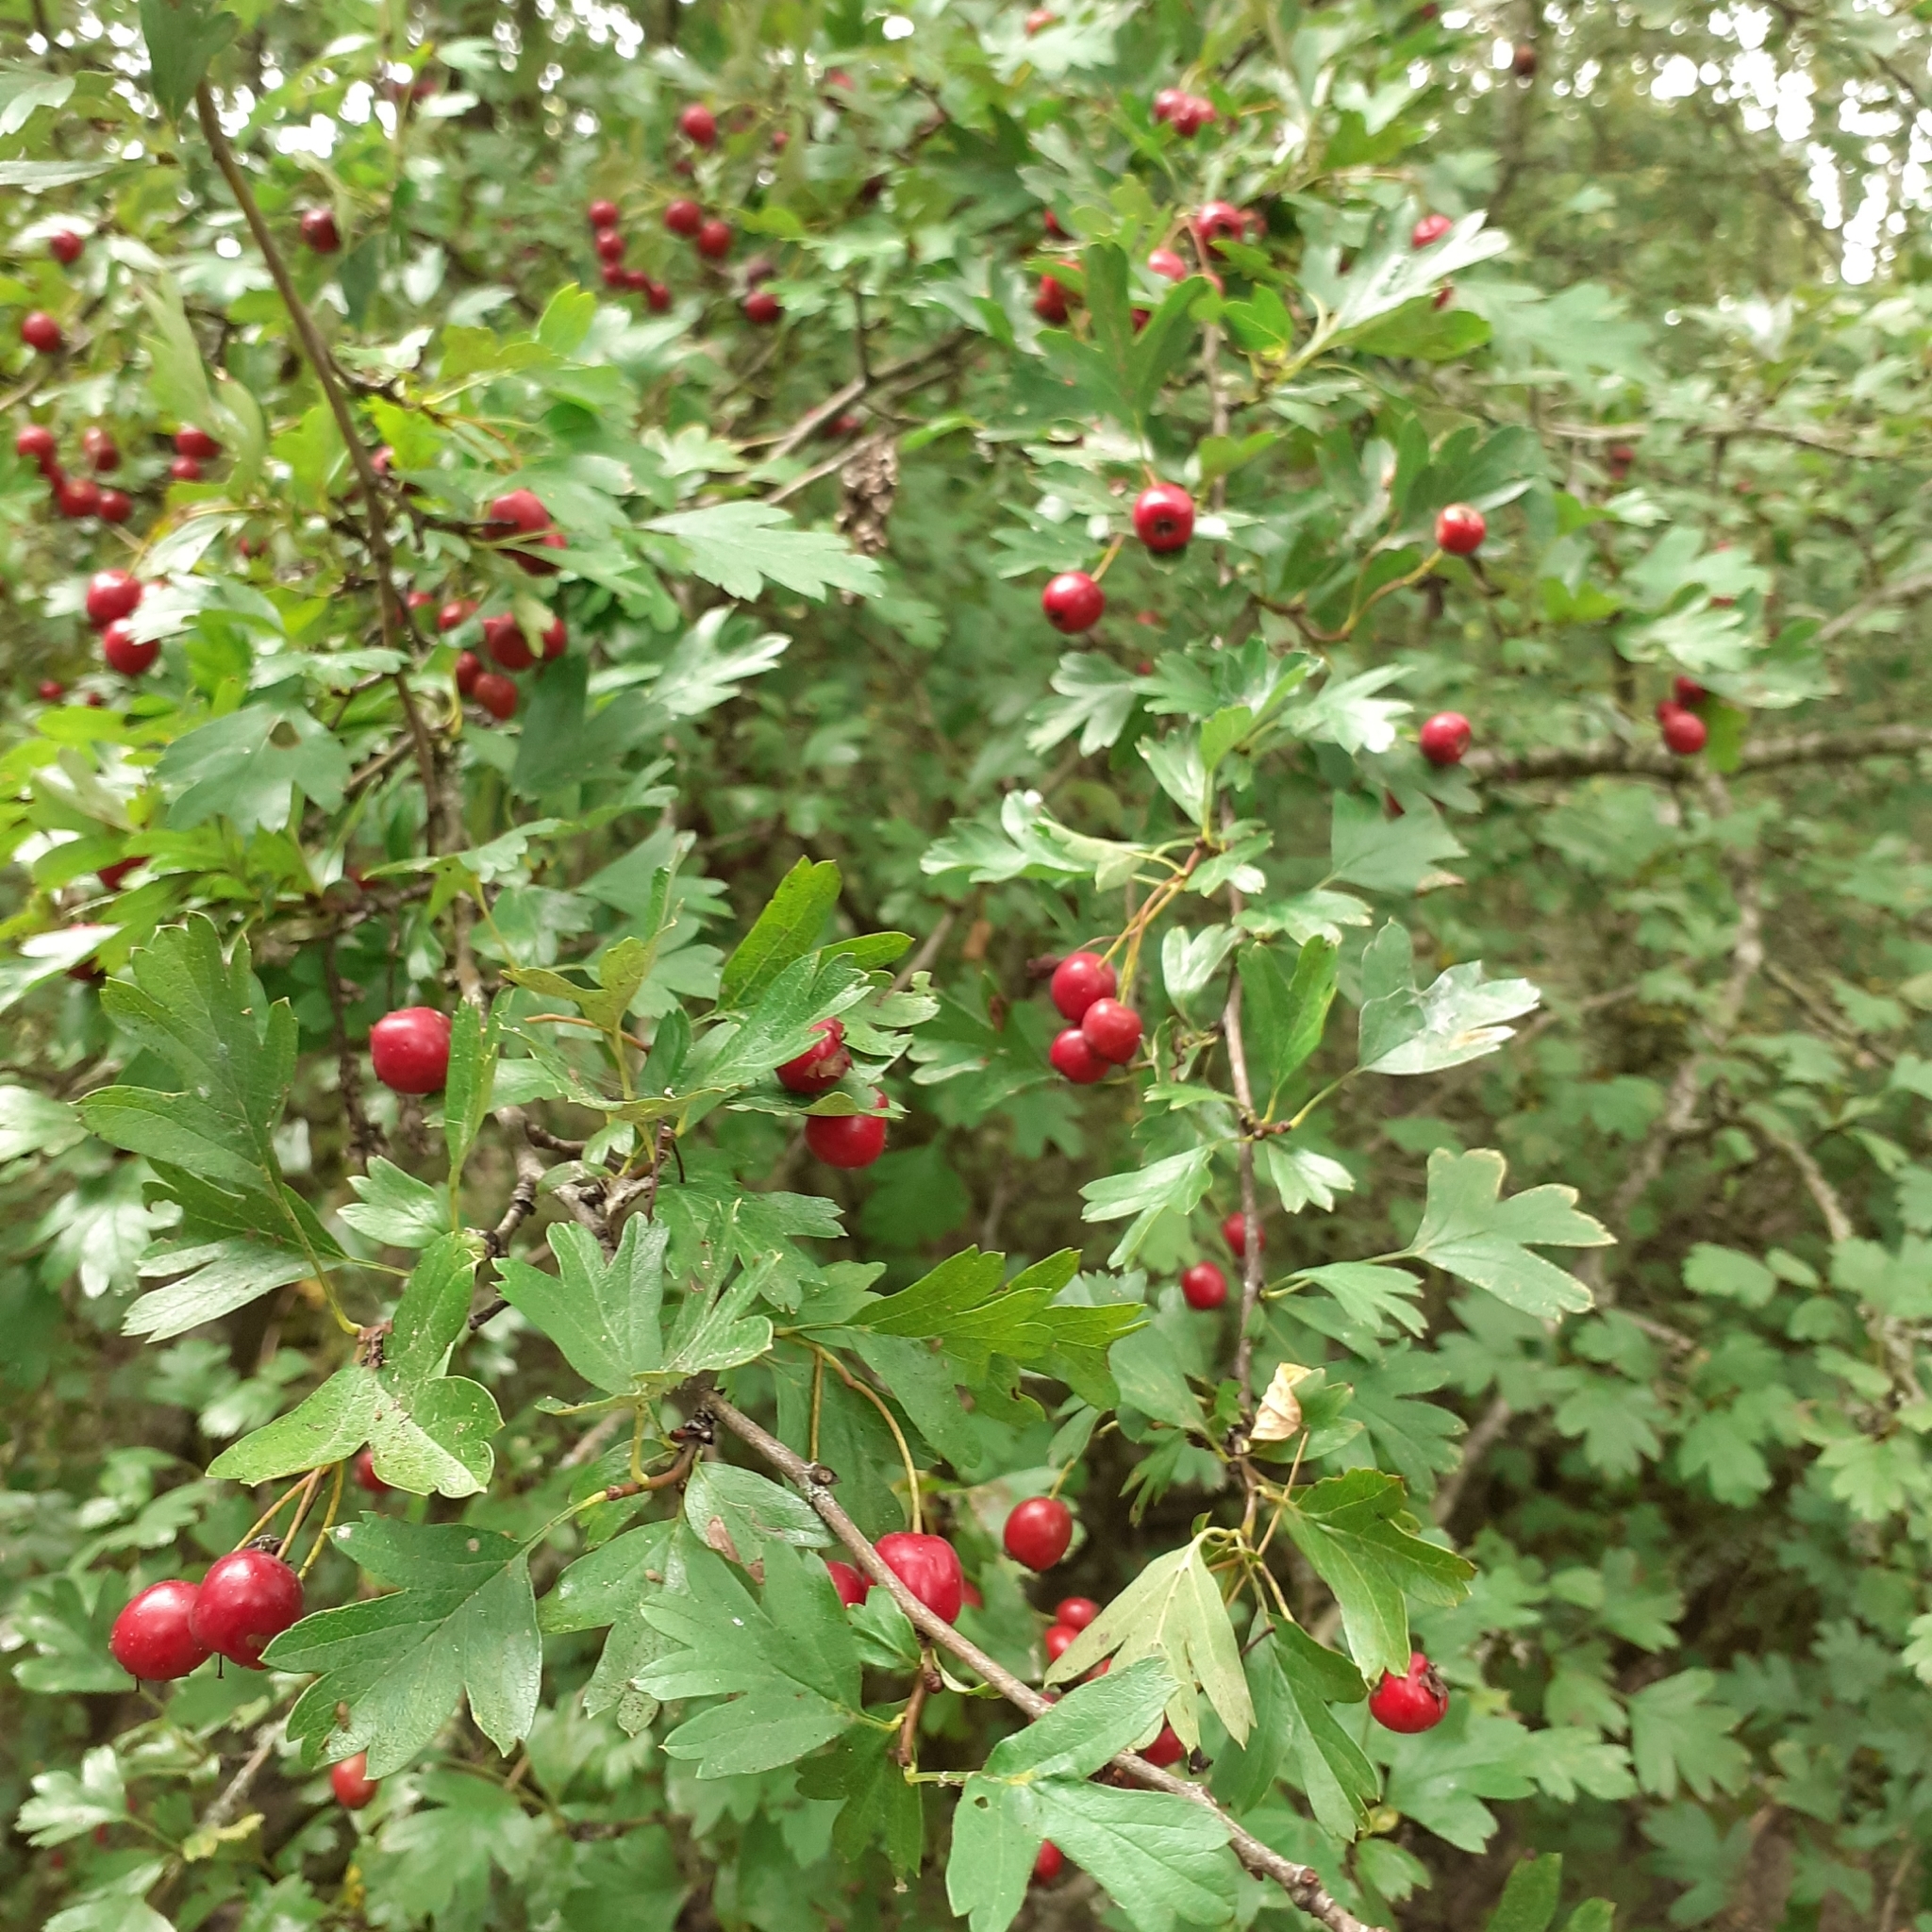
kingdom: Plantae
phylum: Tracheophyta
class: Magnoliopsida
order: Rosales
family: Rosaceae
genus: Crataegus
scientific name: Crataegus monogyna
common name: Hawthorn
